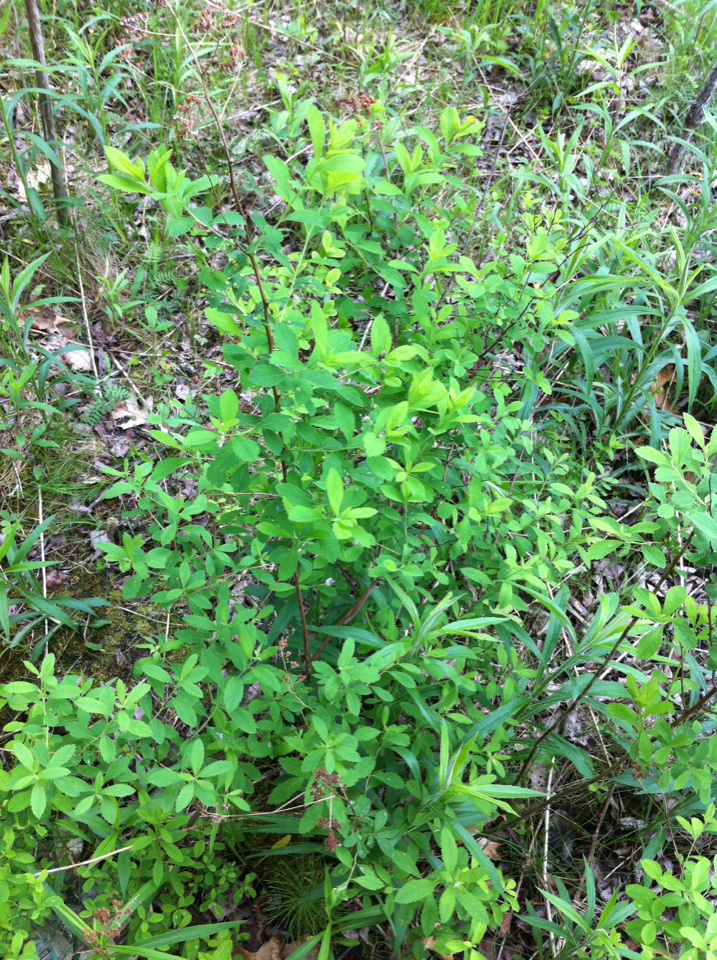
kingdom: Plantae
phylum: Tracheophyta
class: Magnoliopsida
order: Rosales
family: Rosaceae
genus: Spiraea
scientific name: Spiraea alba
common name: Pale bridewort
